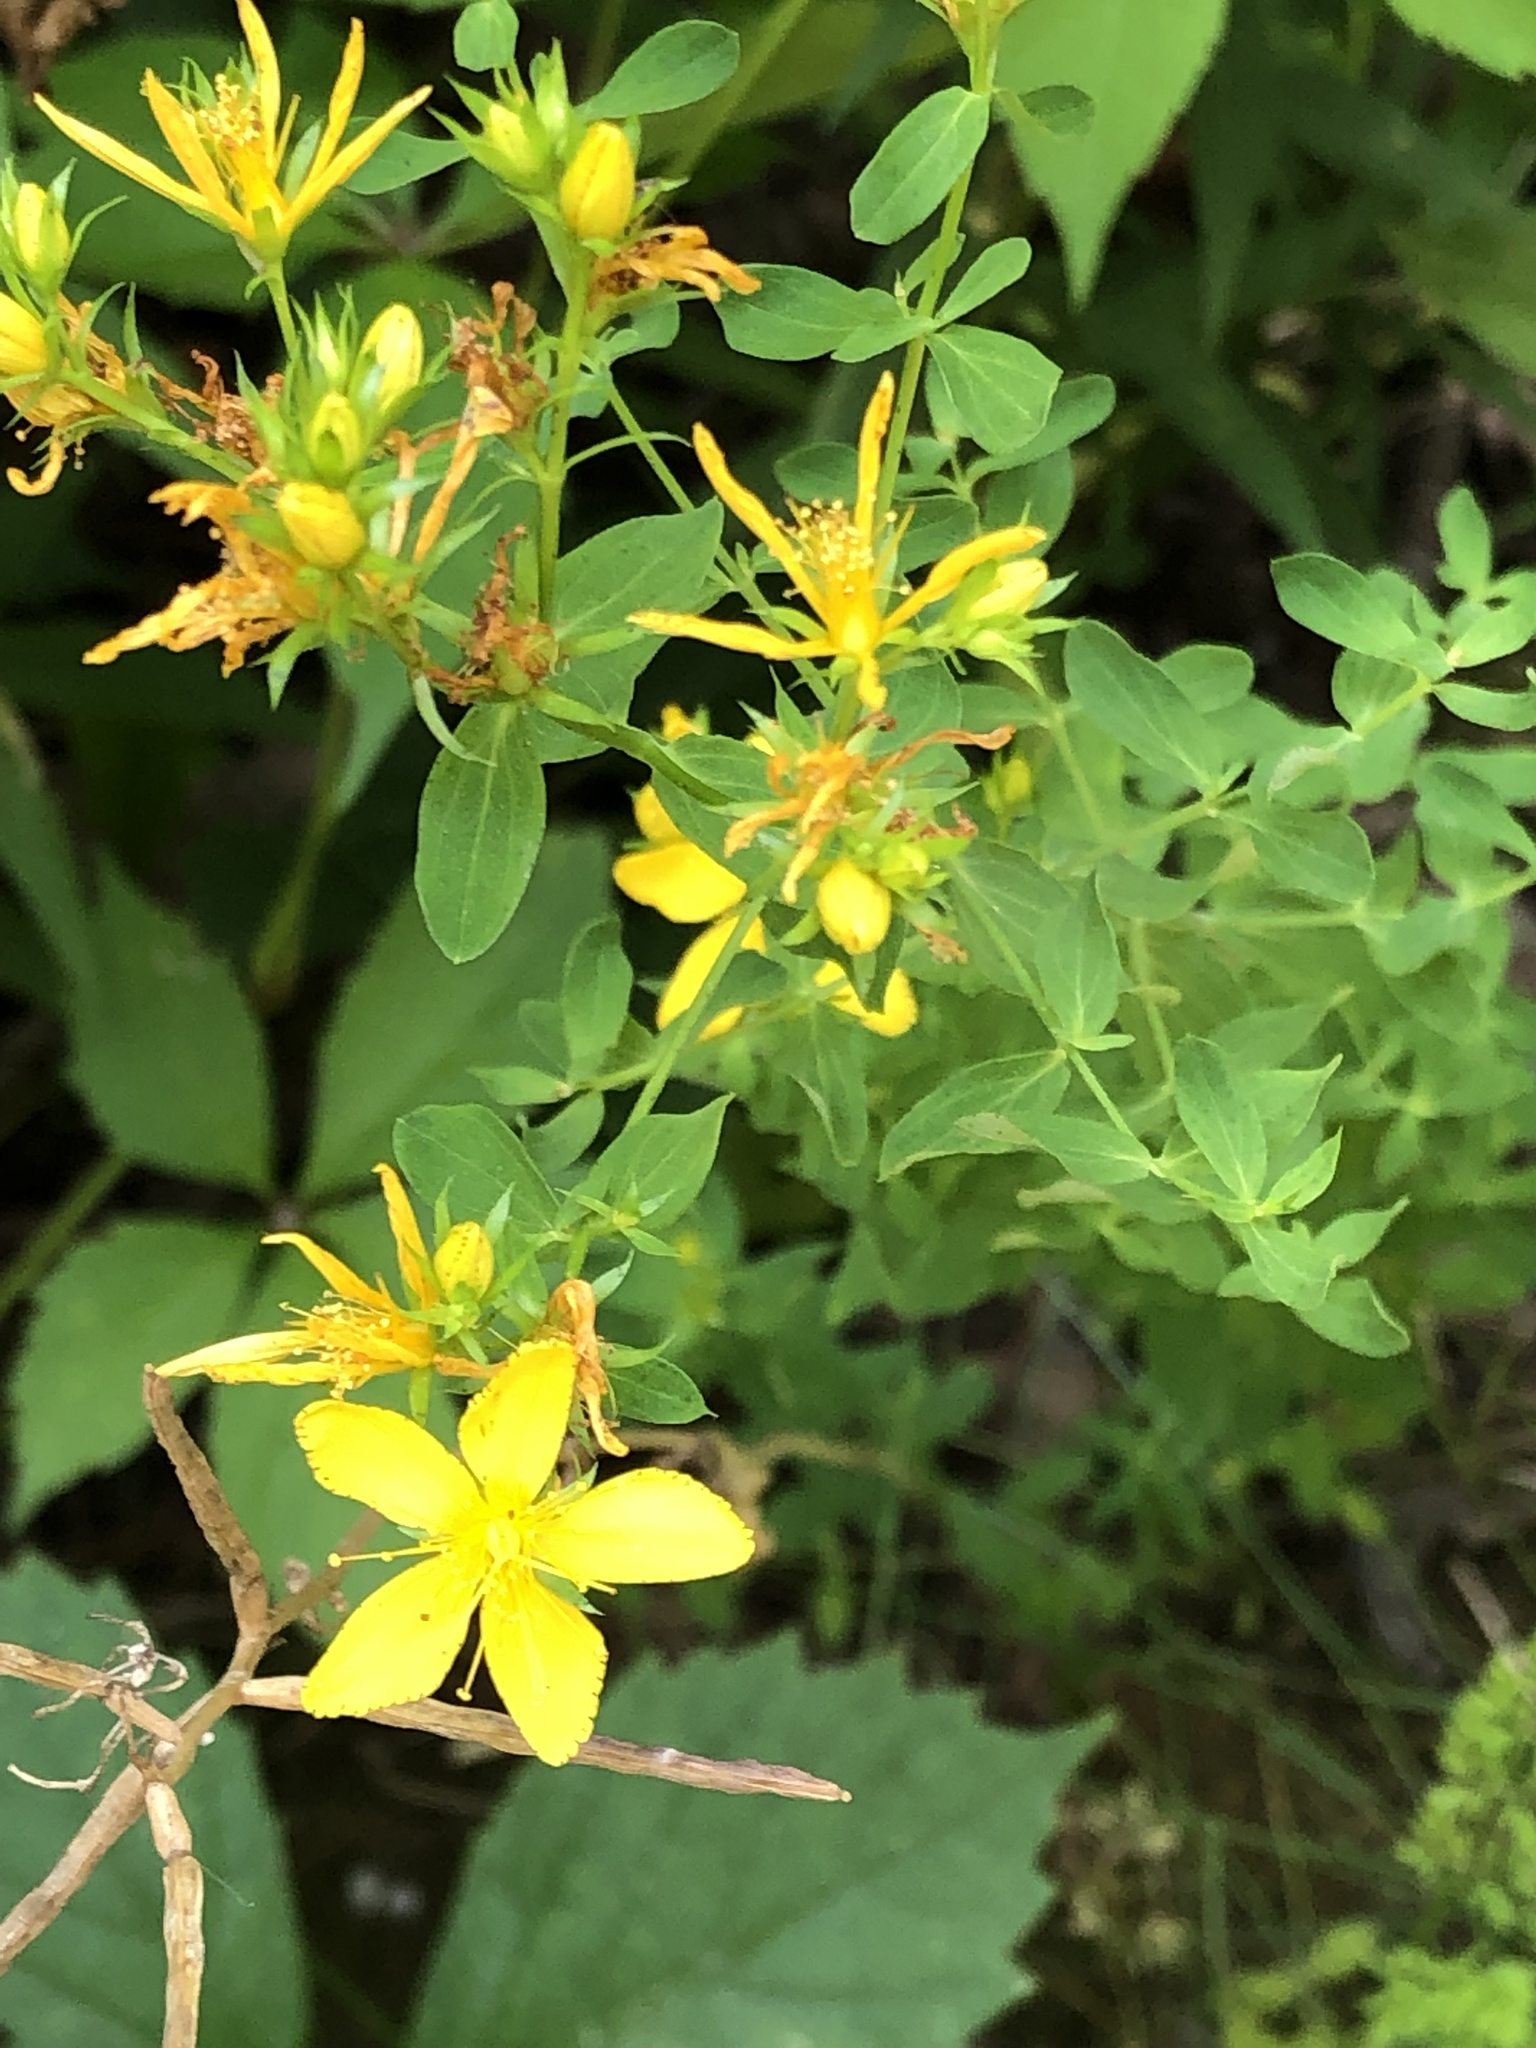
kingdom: Plantae
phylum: Tracheophyta
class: Magnoliopsida
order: Malpighiales
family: Hypericaceae
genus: Hypericum
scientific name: Hypericum perforatum
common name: Common st. johnswort
